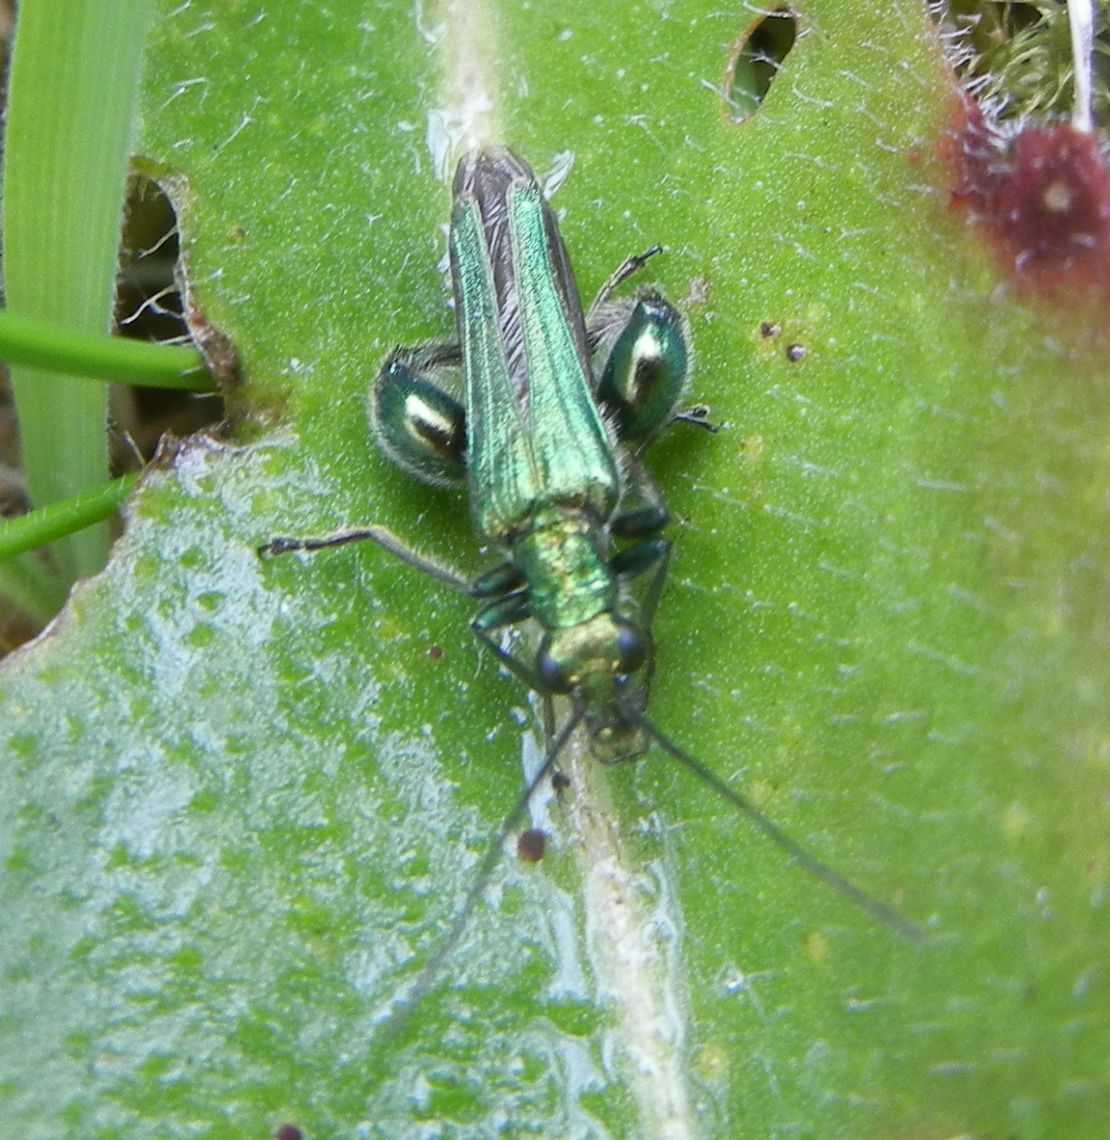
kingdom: Animalia
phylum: Arthropoda
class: Insecta
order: Coleoptera
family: Oedemeridae
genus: Oedemera
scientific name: Oedemera nobilis
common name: Swollen-thighed beetle
